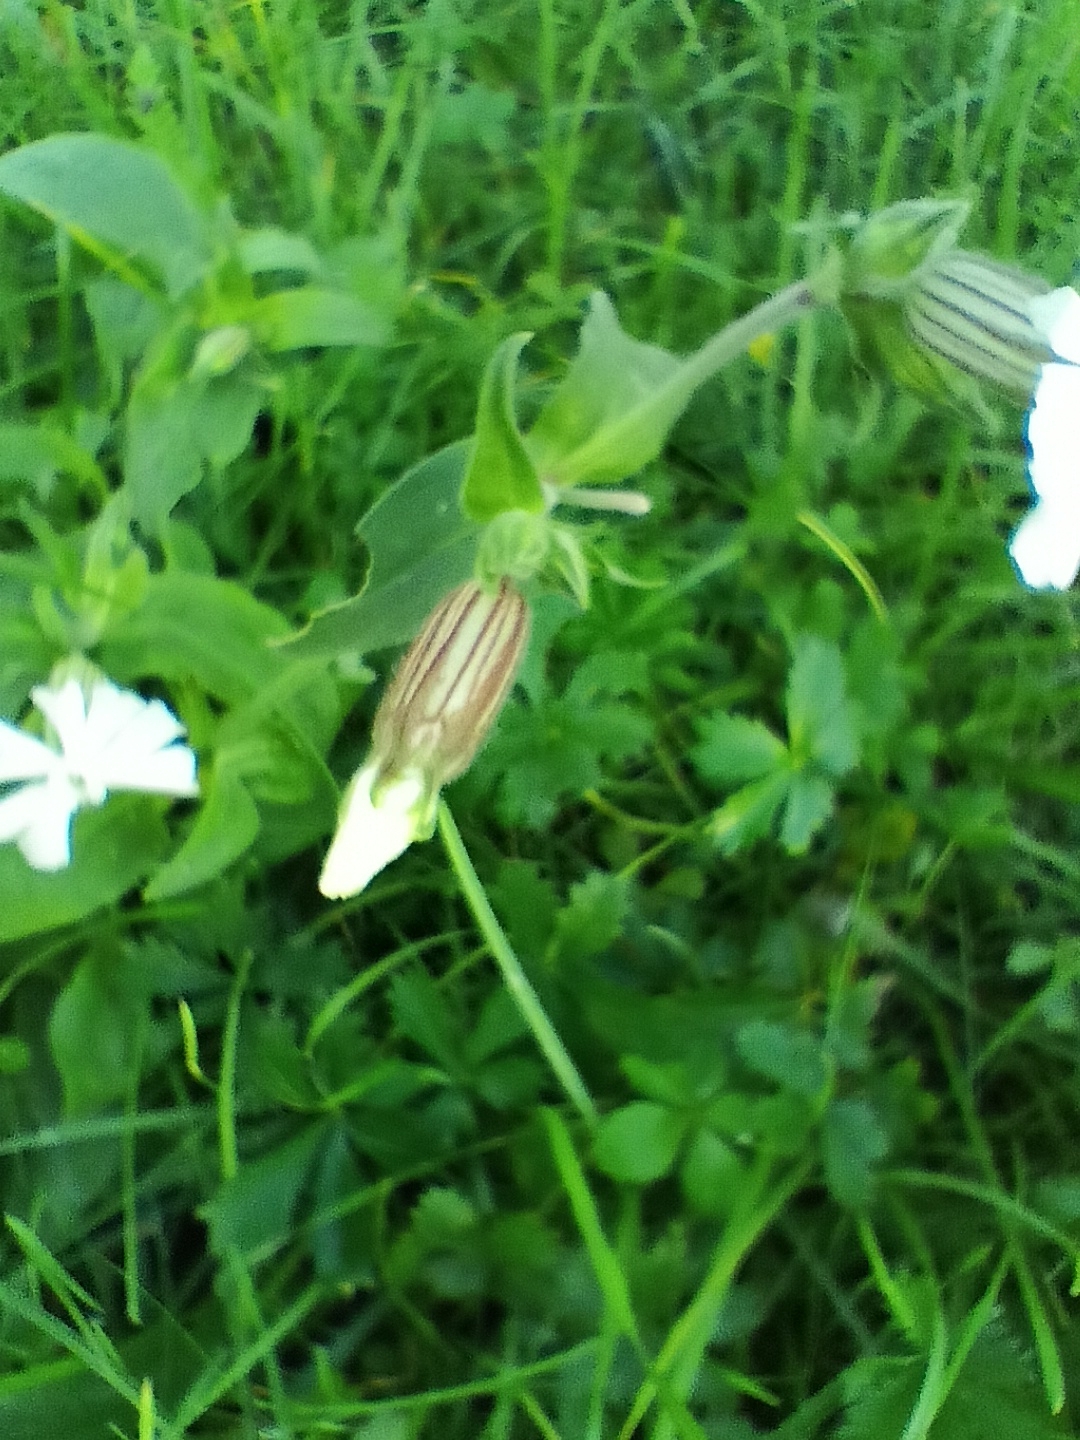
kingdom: Plantae
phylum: Tracheophyta
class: Magnoliopsida
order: Caryophyllales
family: Caryophyllaceae
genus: Silene
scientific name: Silene latifolia
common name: White campion
